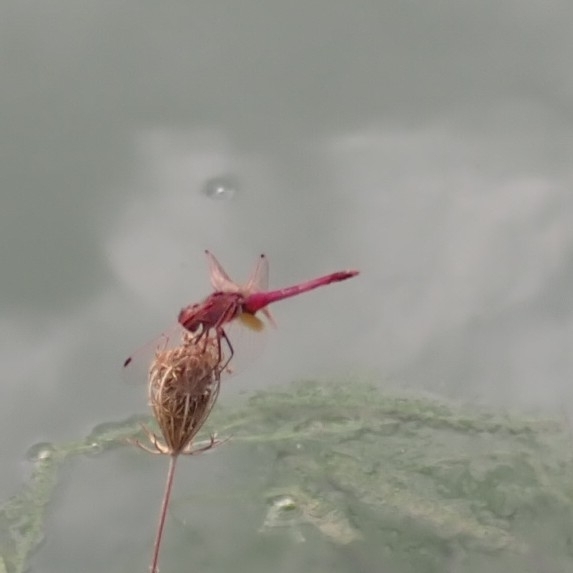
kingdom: Animalia
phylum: Arthropoda
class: Insecta
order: Odonata
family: Libellulidae
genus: Trithemis
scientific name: Trithemis annulata
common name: Violet dropwing
